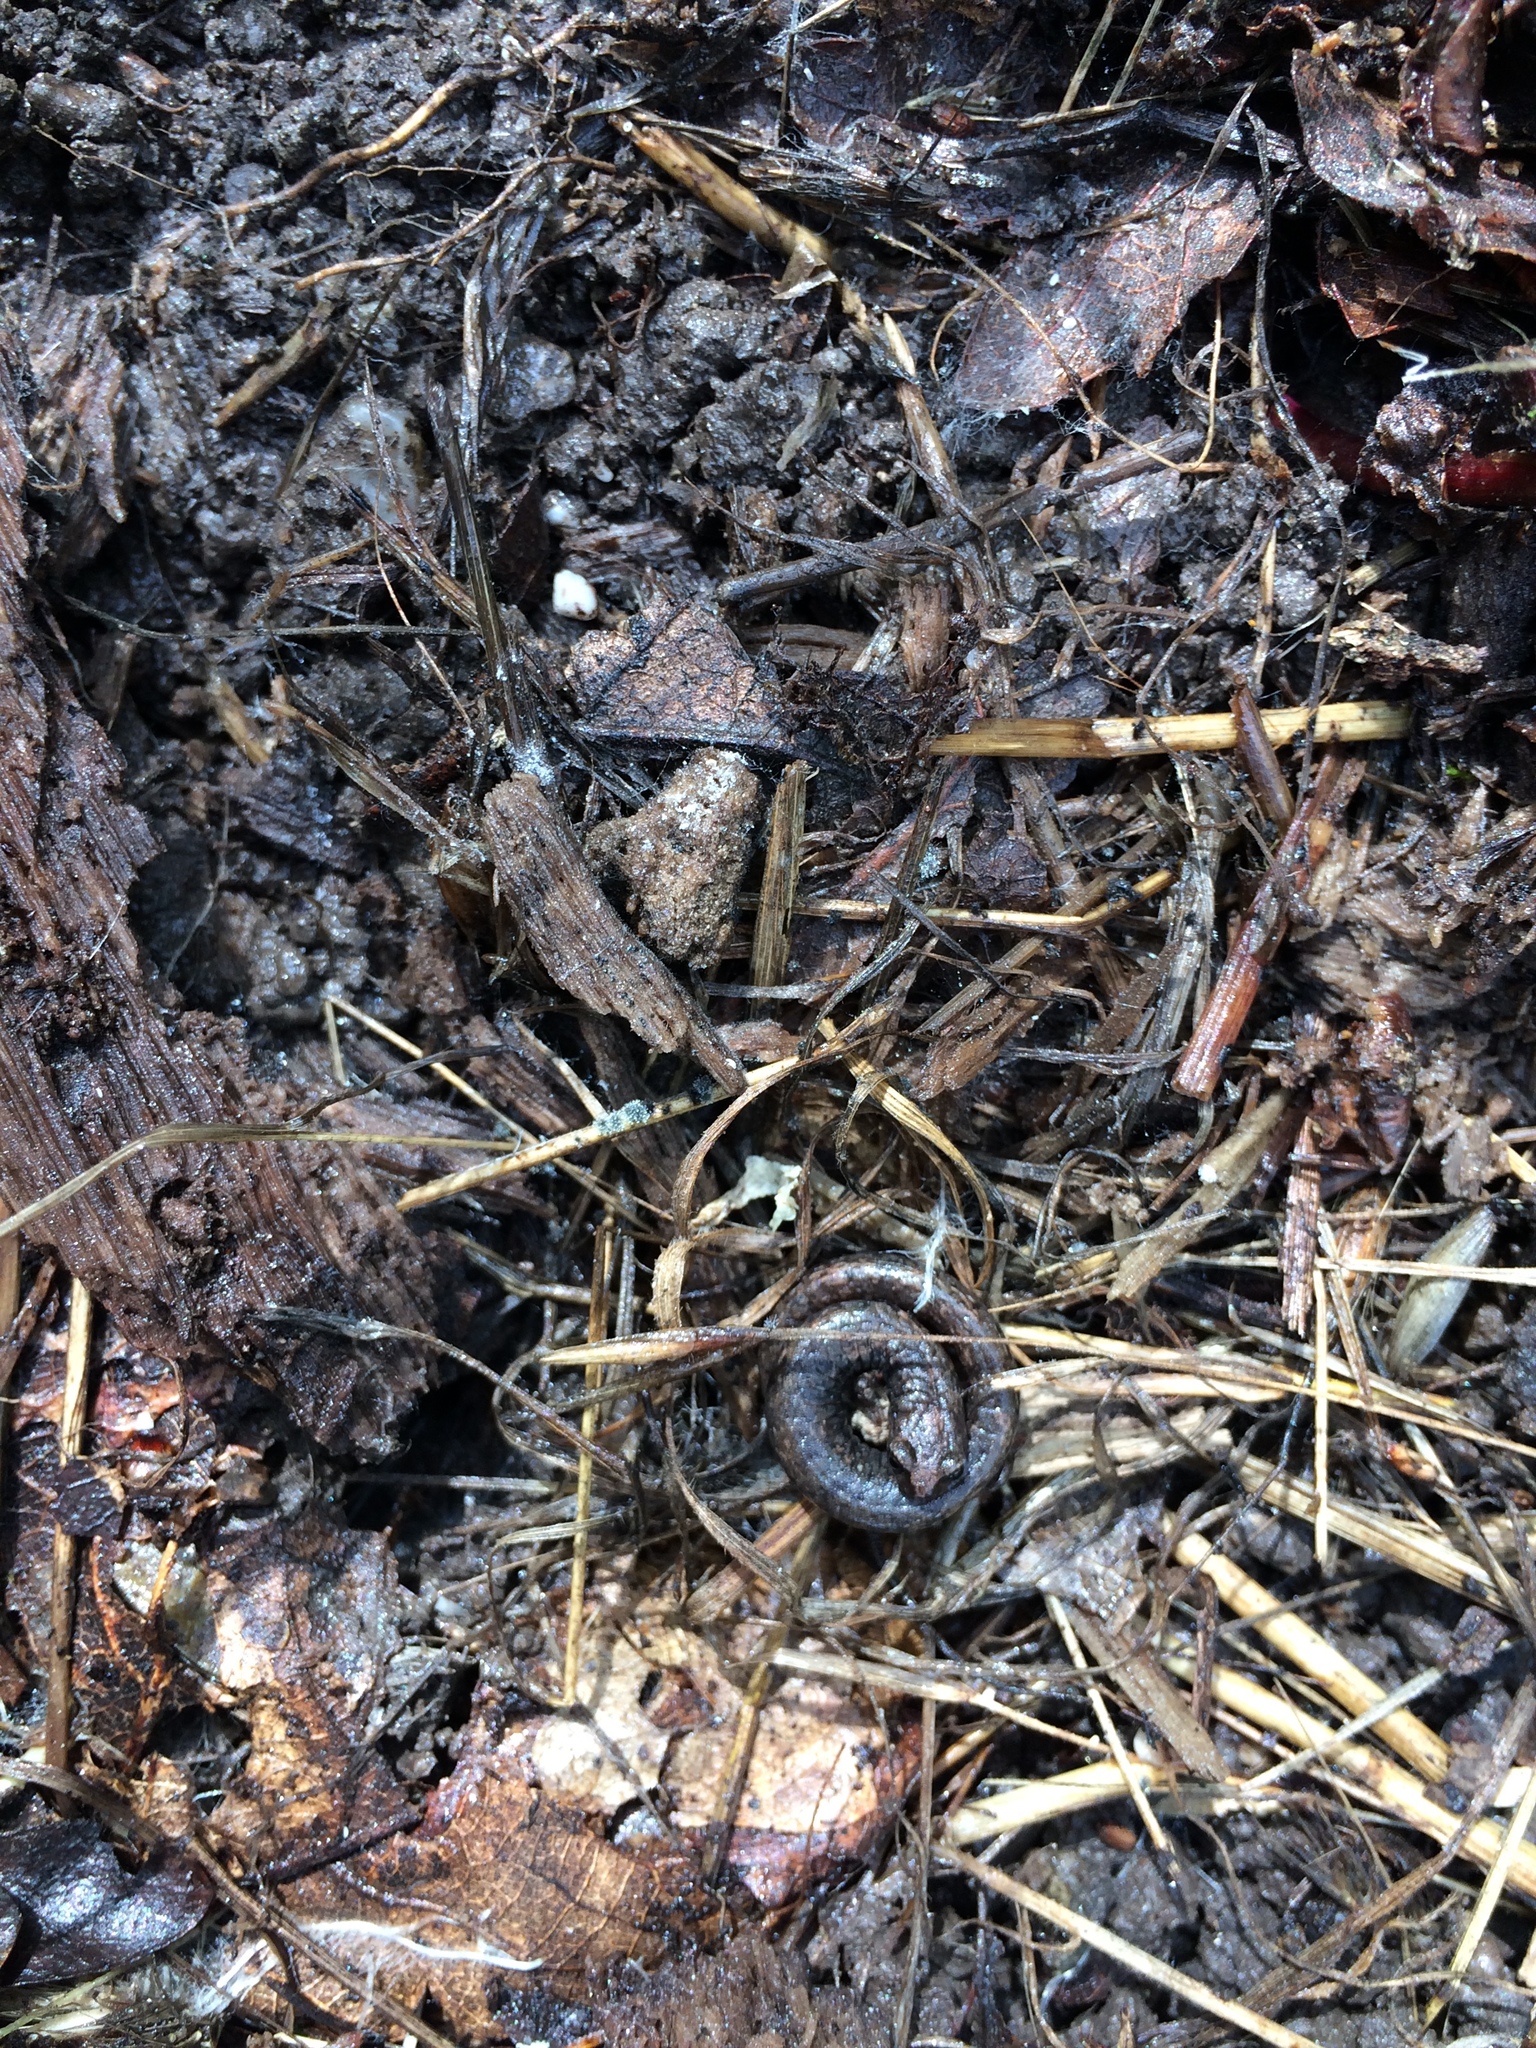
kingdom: Animalia
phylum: Chordata
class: Amphibia
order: Caudata
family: Plethodontidae
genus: Batrachoseps
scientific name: Batrachoseps attenuatus
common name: California slender salamander
